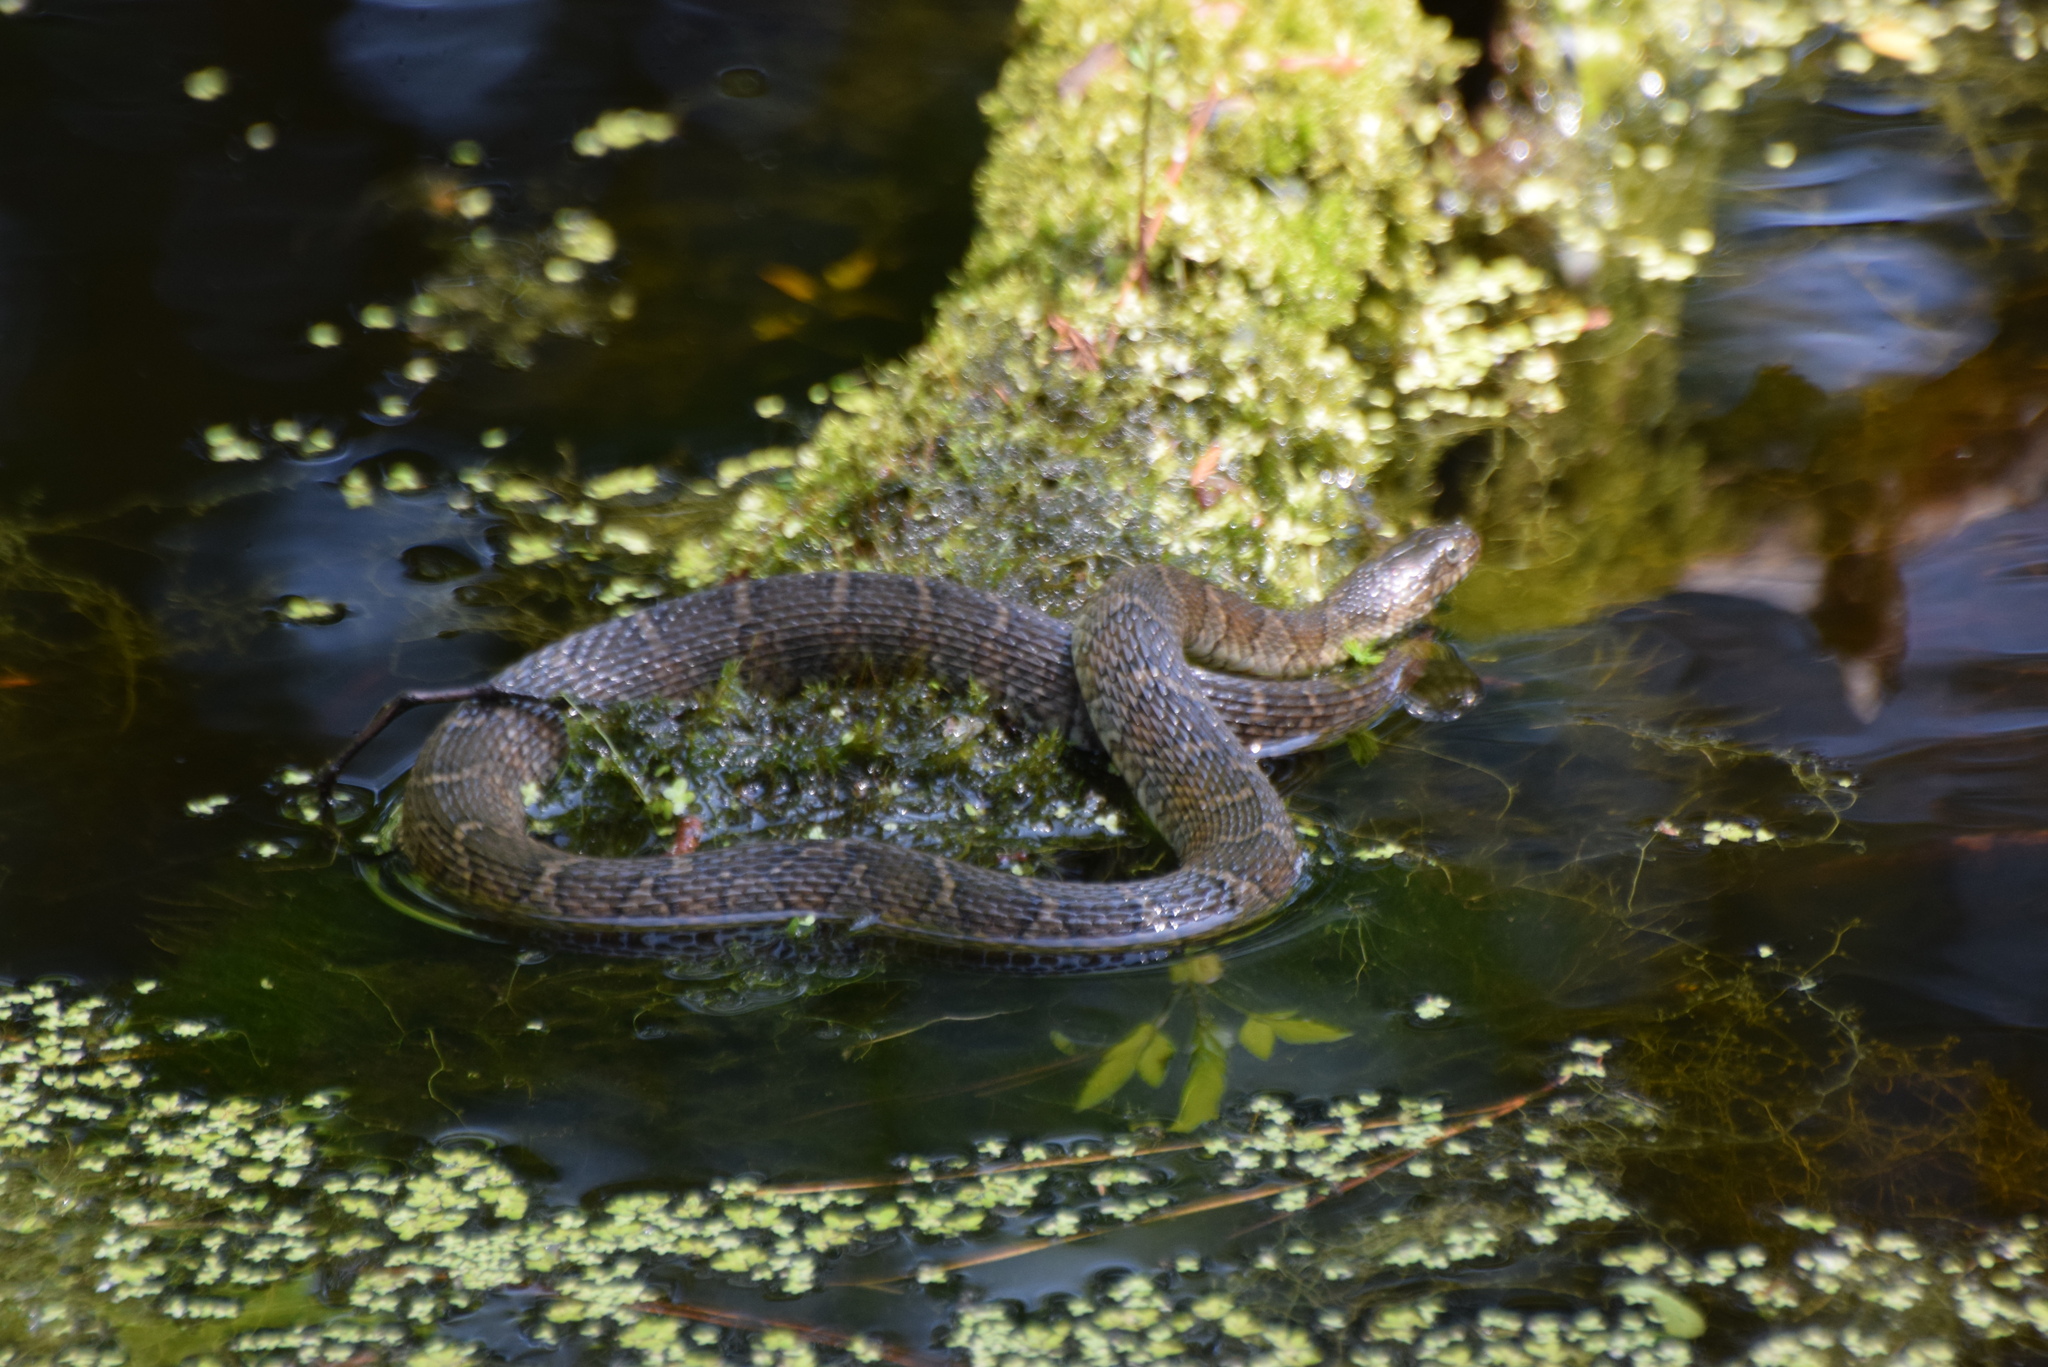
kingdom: Animalia
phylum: Chordata
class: Squamata
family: Colubridae
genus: Nerodia
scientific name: Nerodia sipedon
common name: Northern water snake
